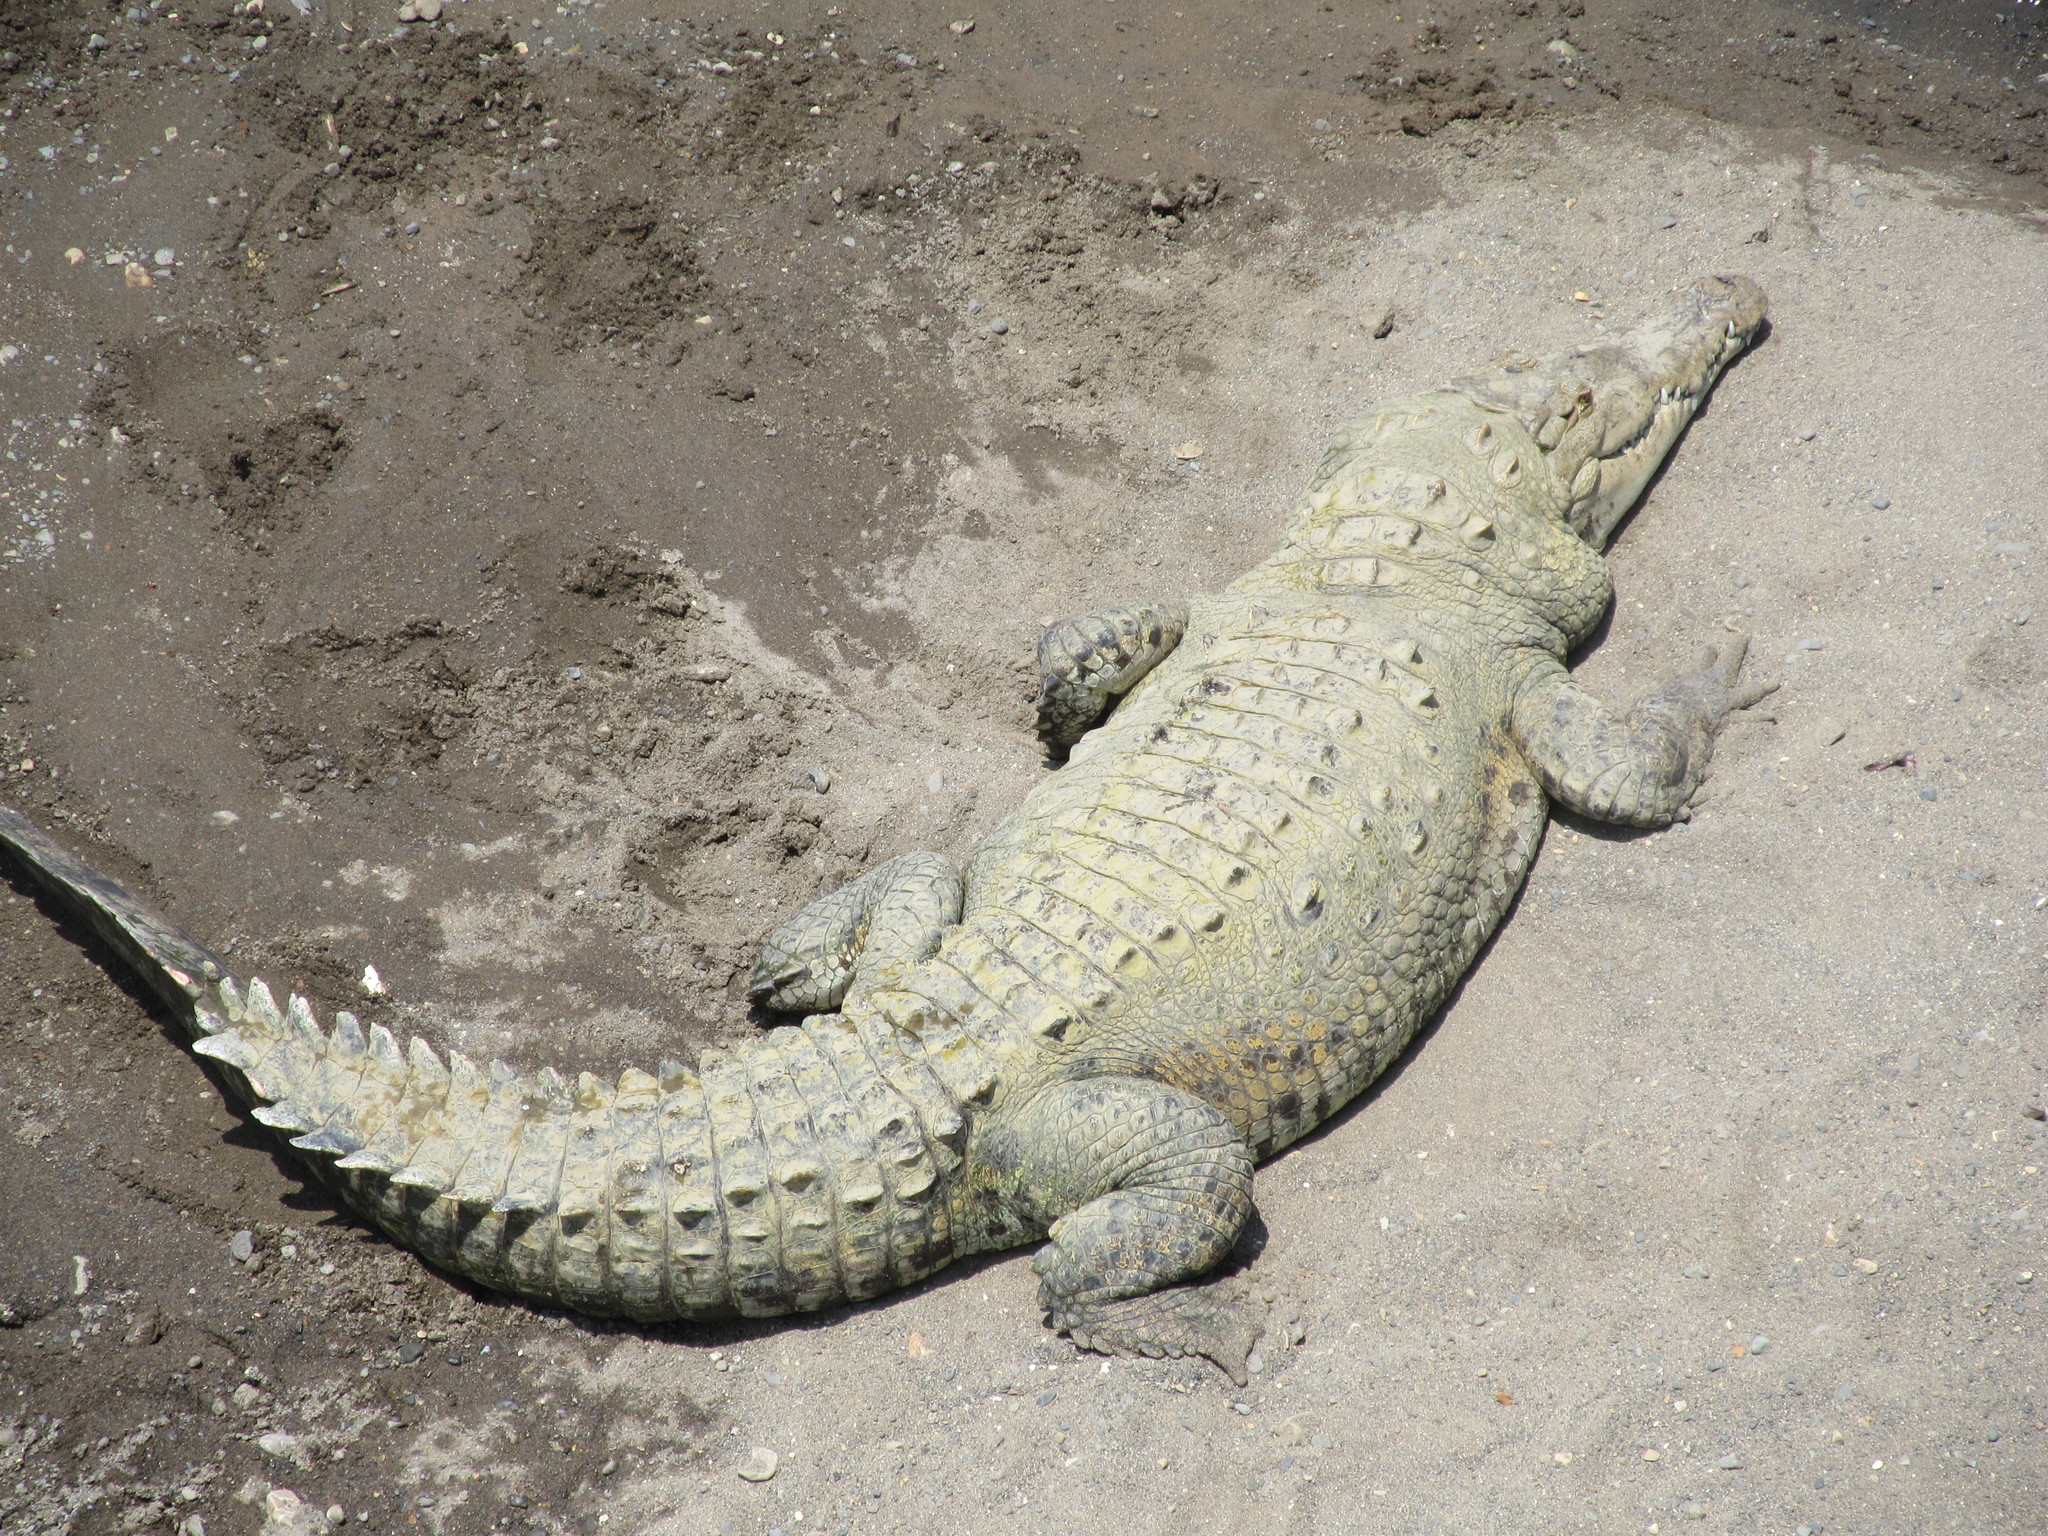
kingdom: Animalia
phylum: Chordata
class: Crocodylia
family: Crocodylidae
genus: Crocodylus
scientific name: Crocodylus acutus
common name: American crocodile
